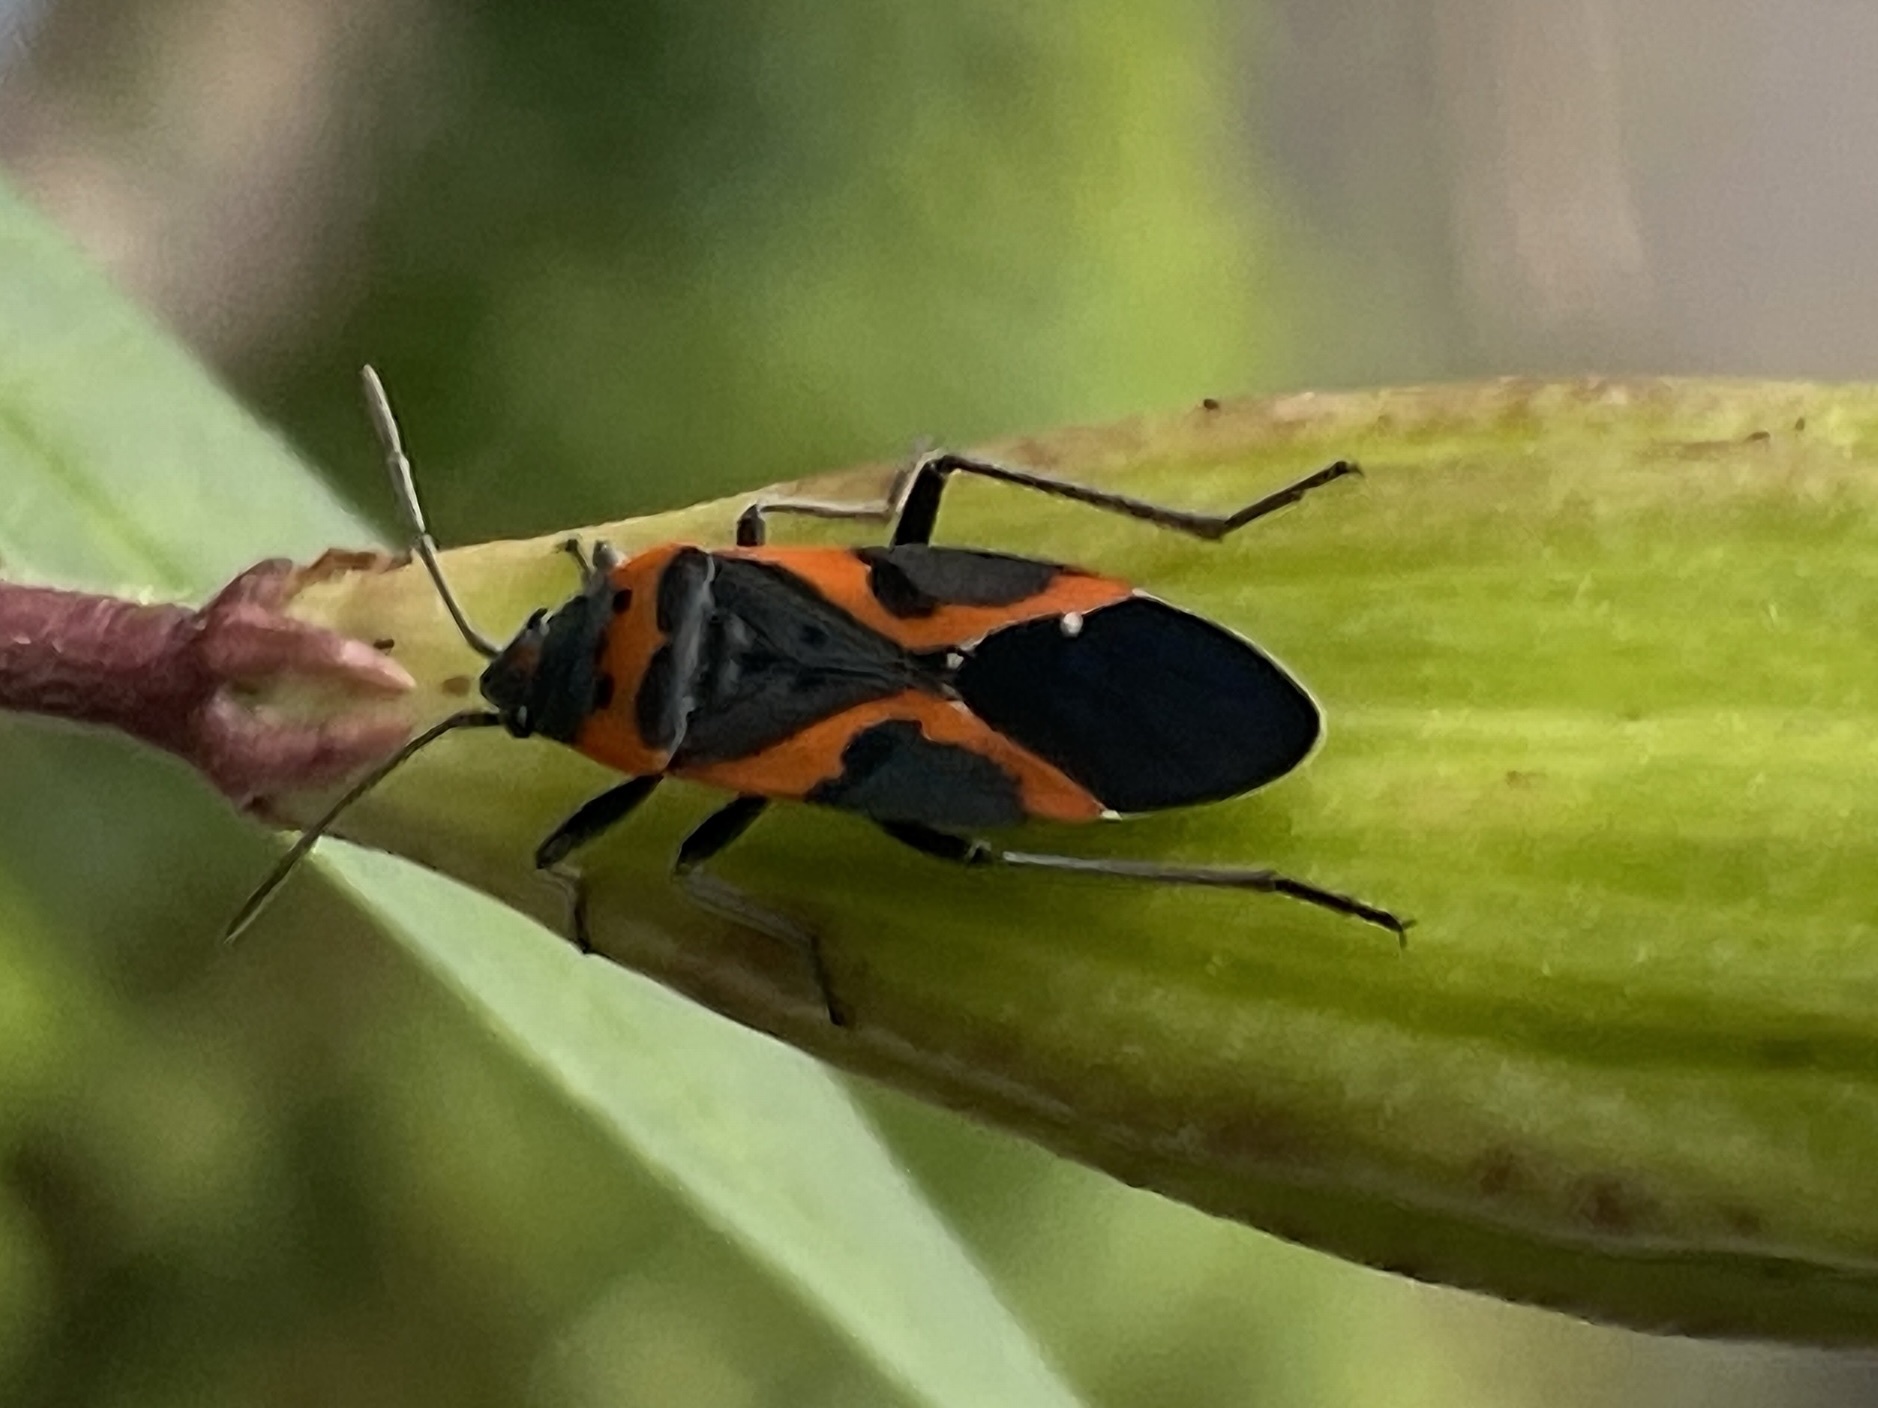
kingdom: Animalia
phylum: Arthropoda
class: Insecta
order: Hemiptera
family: Lygaeidae
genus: Lygaeus
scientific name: Lygaeus kalmii
